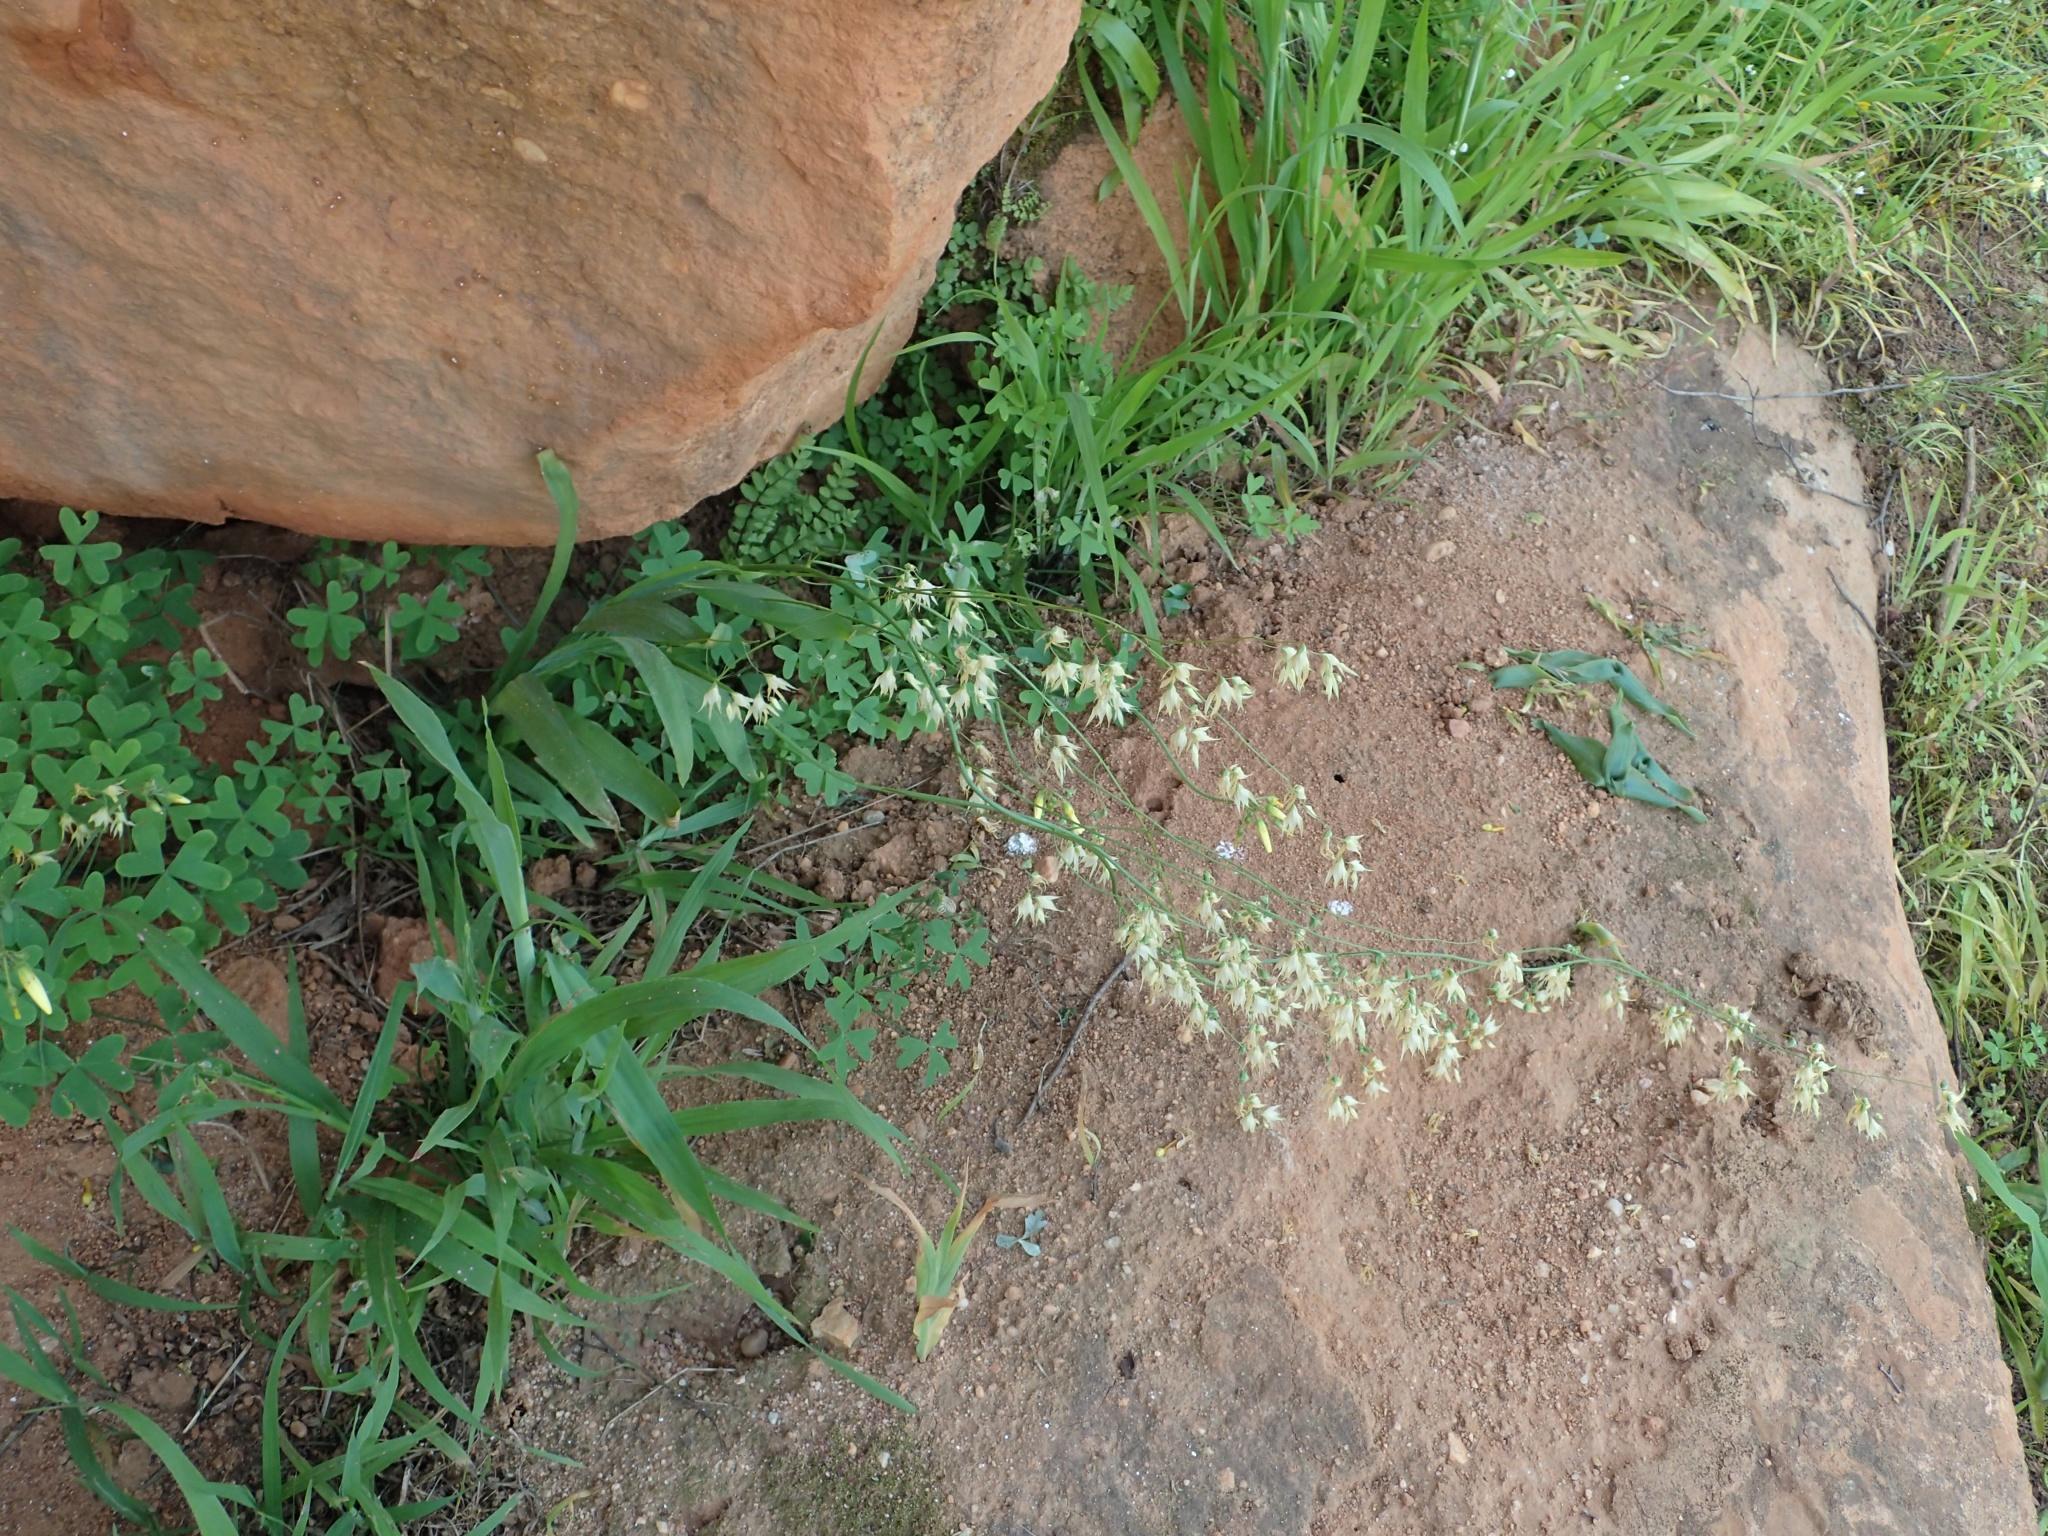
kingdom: Plantae
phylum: Tracheophyta
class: Liliopsida
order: Asparagales
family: Iridaceae
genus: Melasphaerula
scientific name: Melasphaerula graminea
